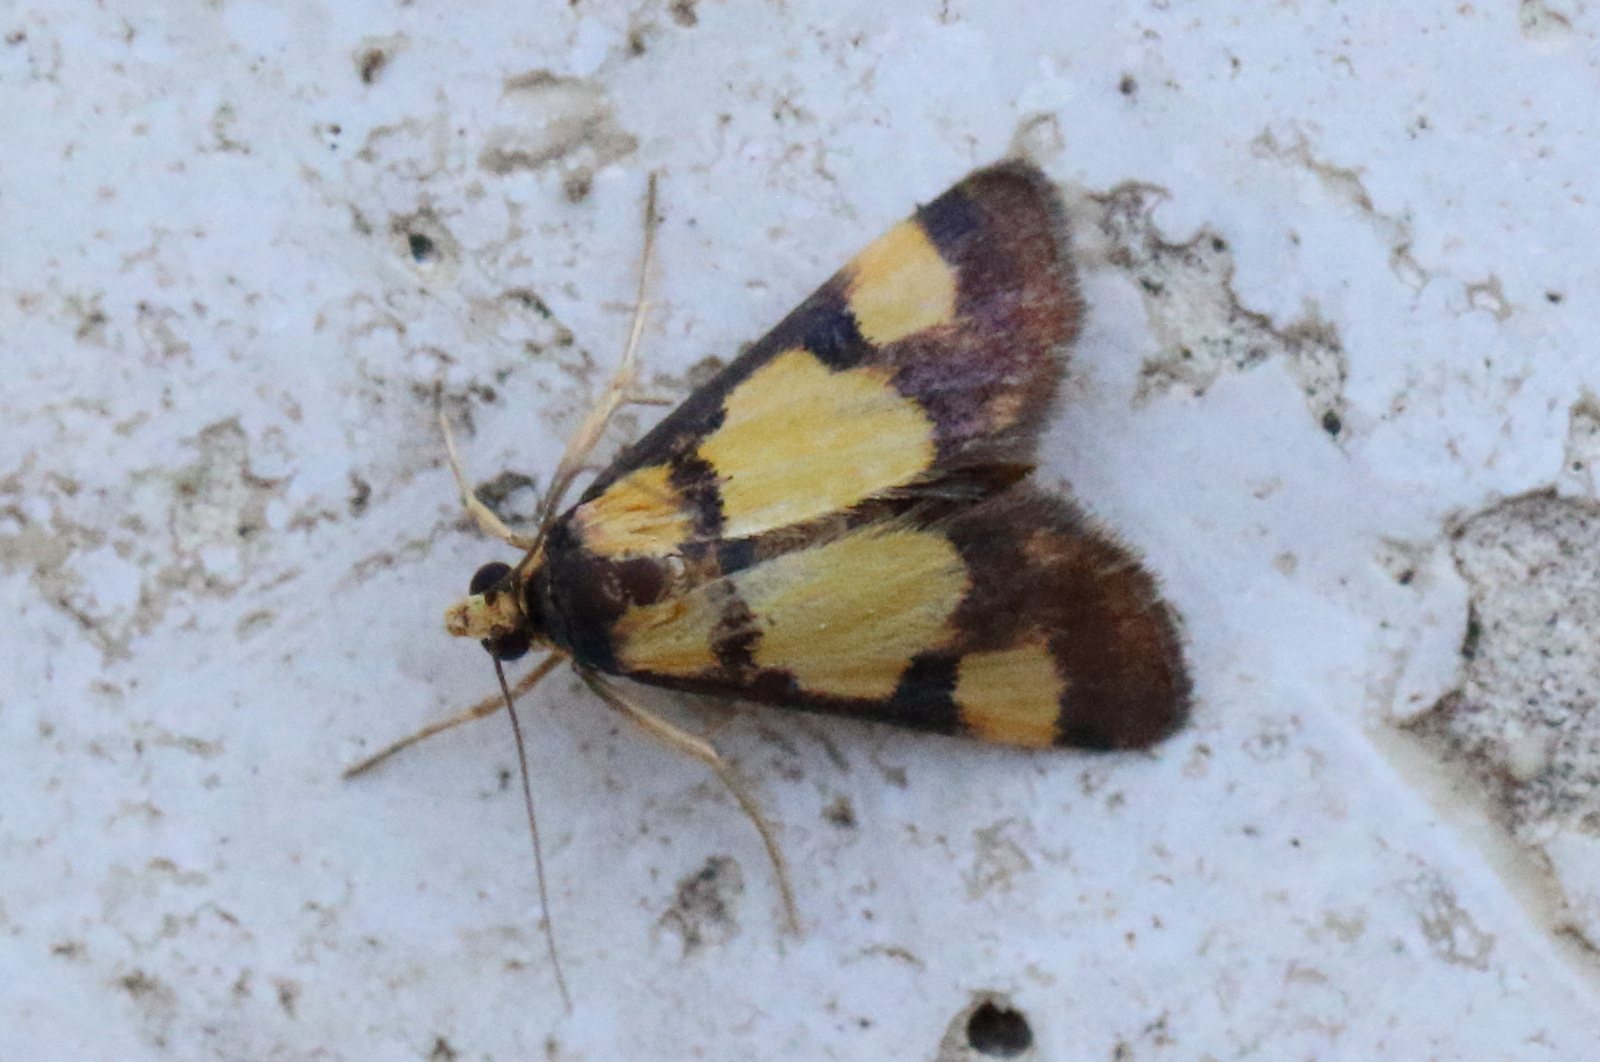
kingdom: Animalia
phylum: Arthropoda
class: Insecta
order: Lepidoptera
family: Crambidae
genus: Deuterarcha
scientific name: Deuterarcha xanthomela
